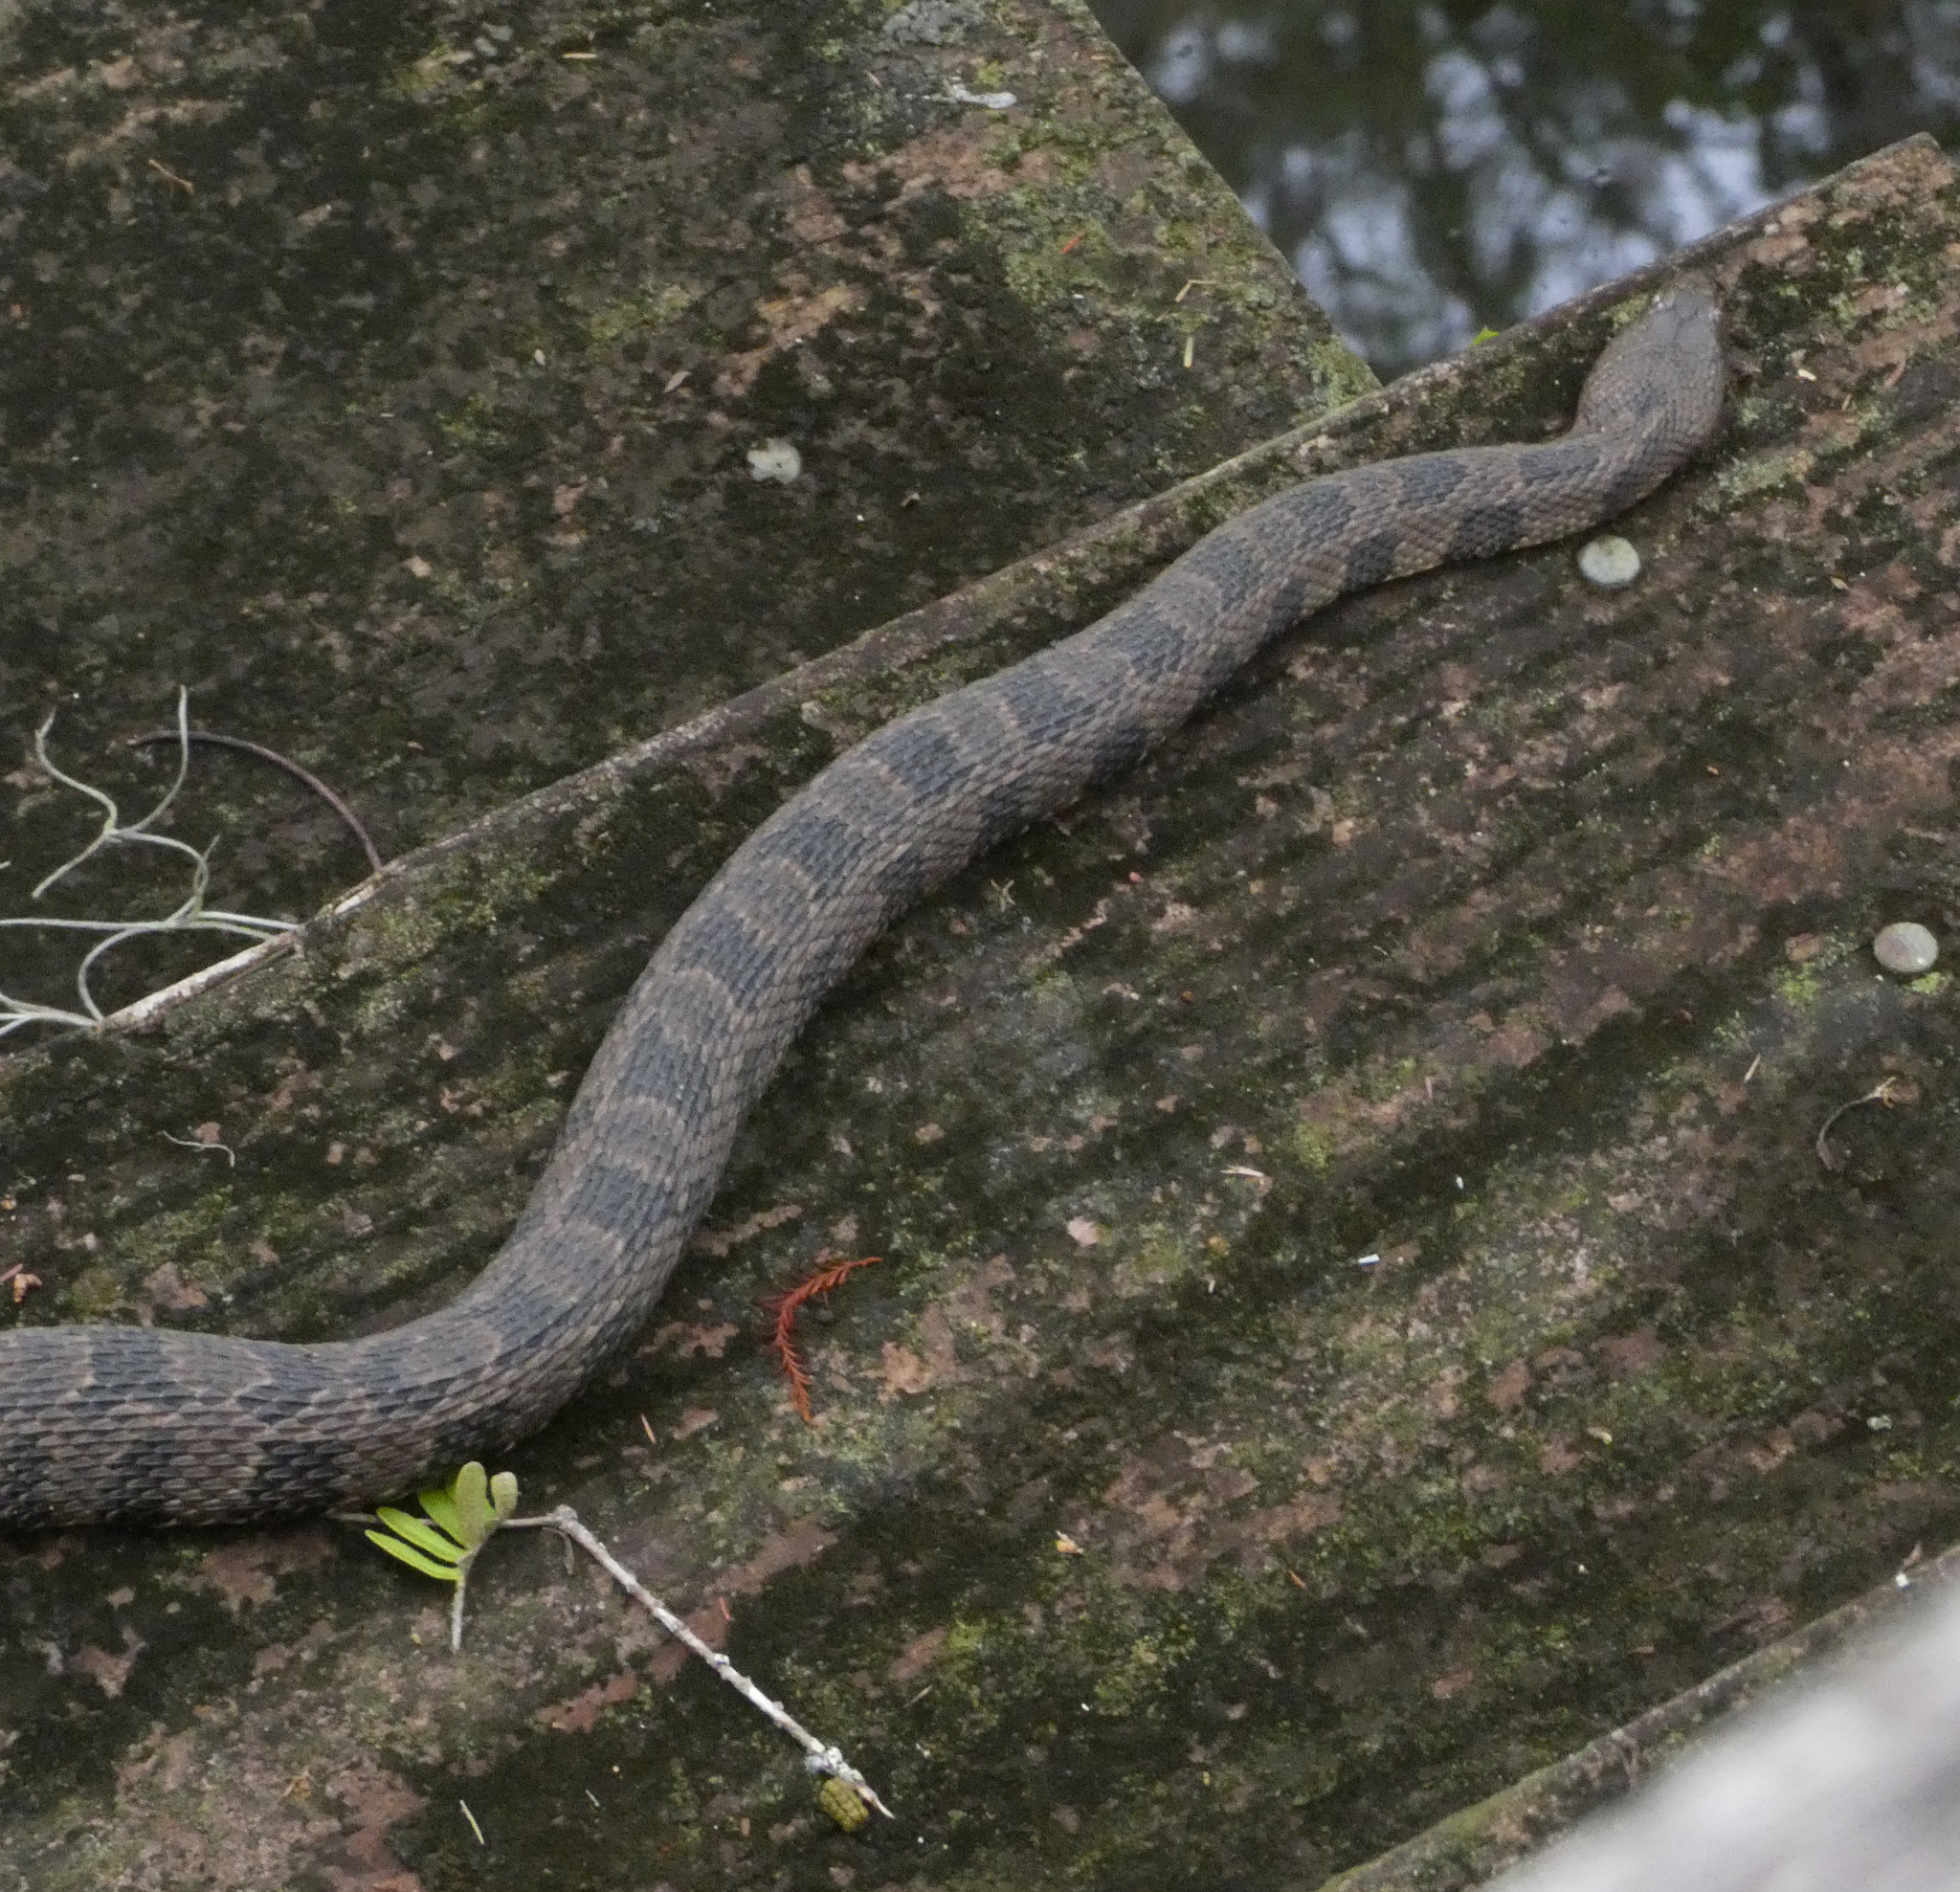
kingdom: Animalia
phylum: Chordata
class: Squamata
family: Colubridae
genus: Nerodia
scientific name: Nerodia taxispilota
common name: Brown water snake
